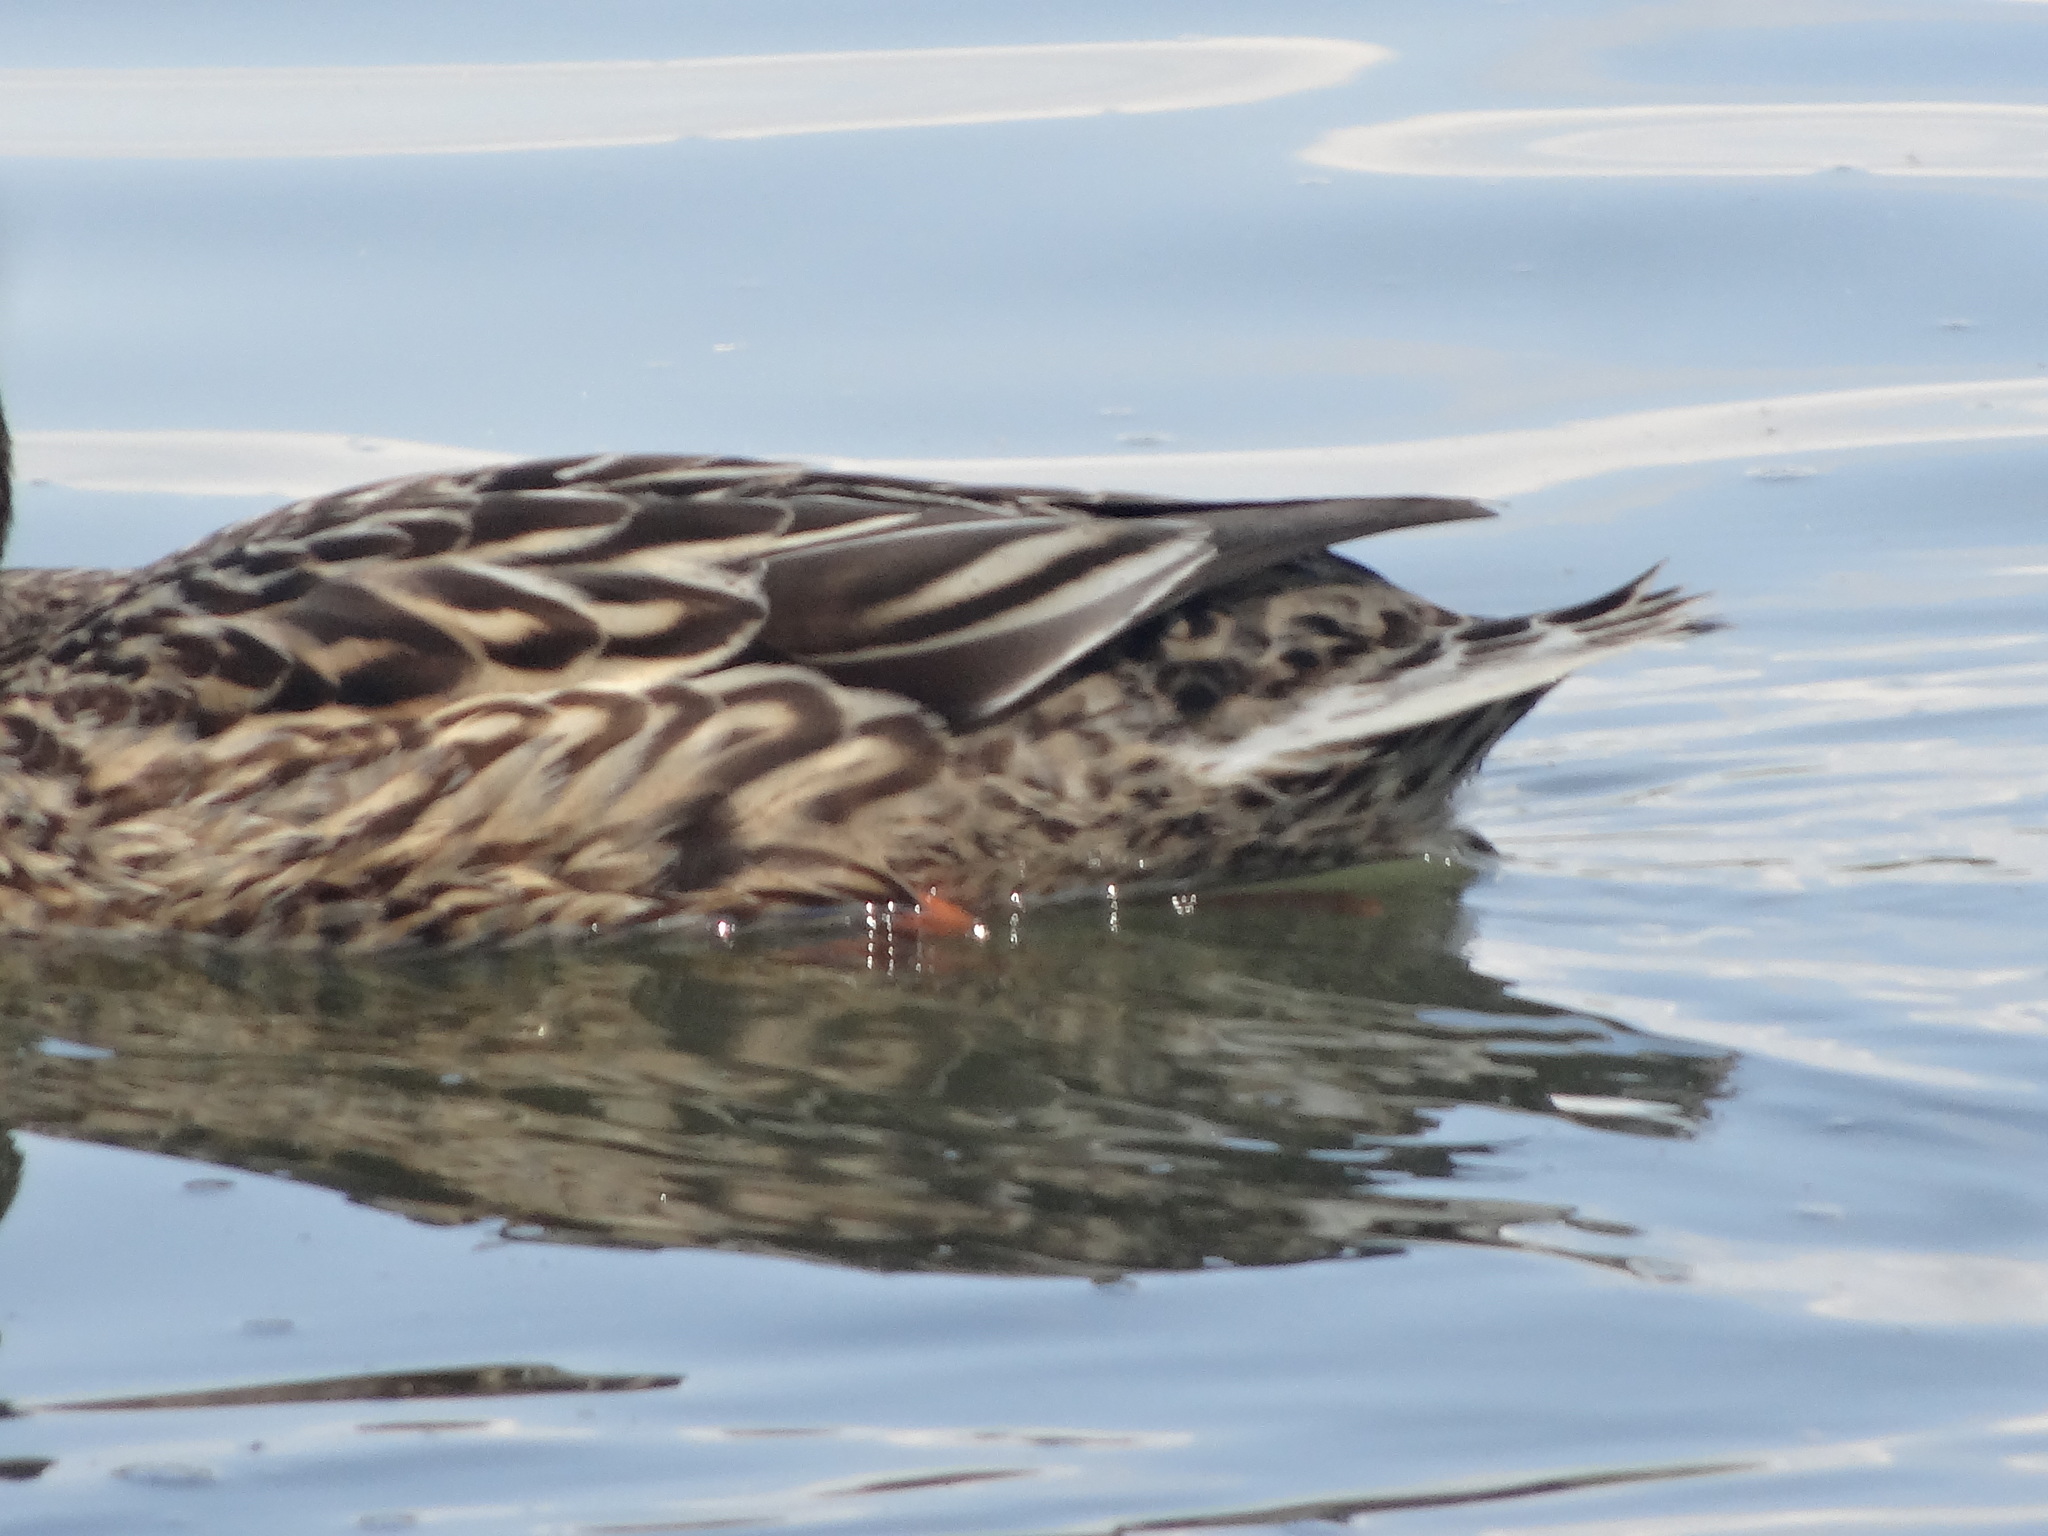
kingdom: Animalia
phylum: Chordata
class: Aves
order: Anseriformes
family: Anatidae
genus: Anas
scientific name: Anas platyrhynchos
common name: Mallard
